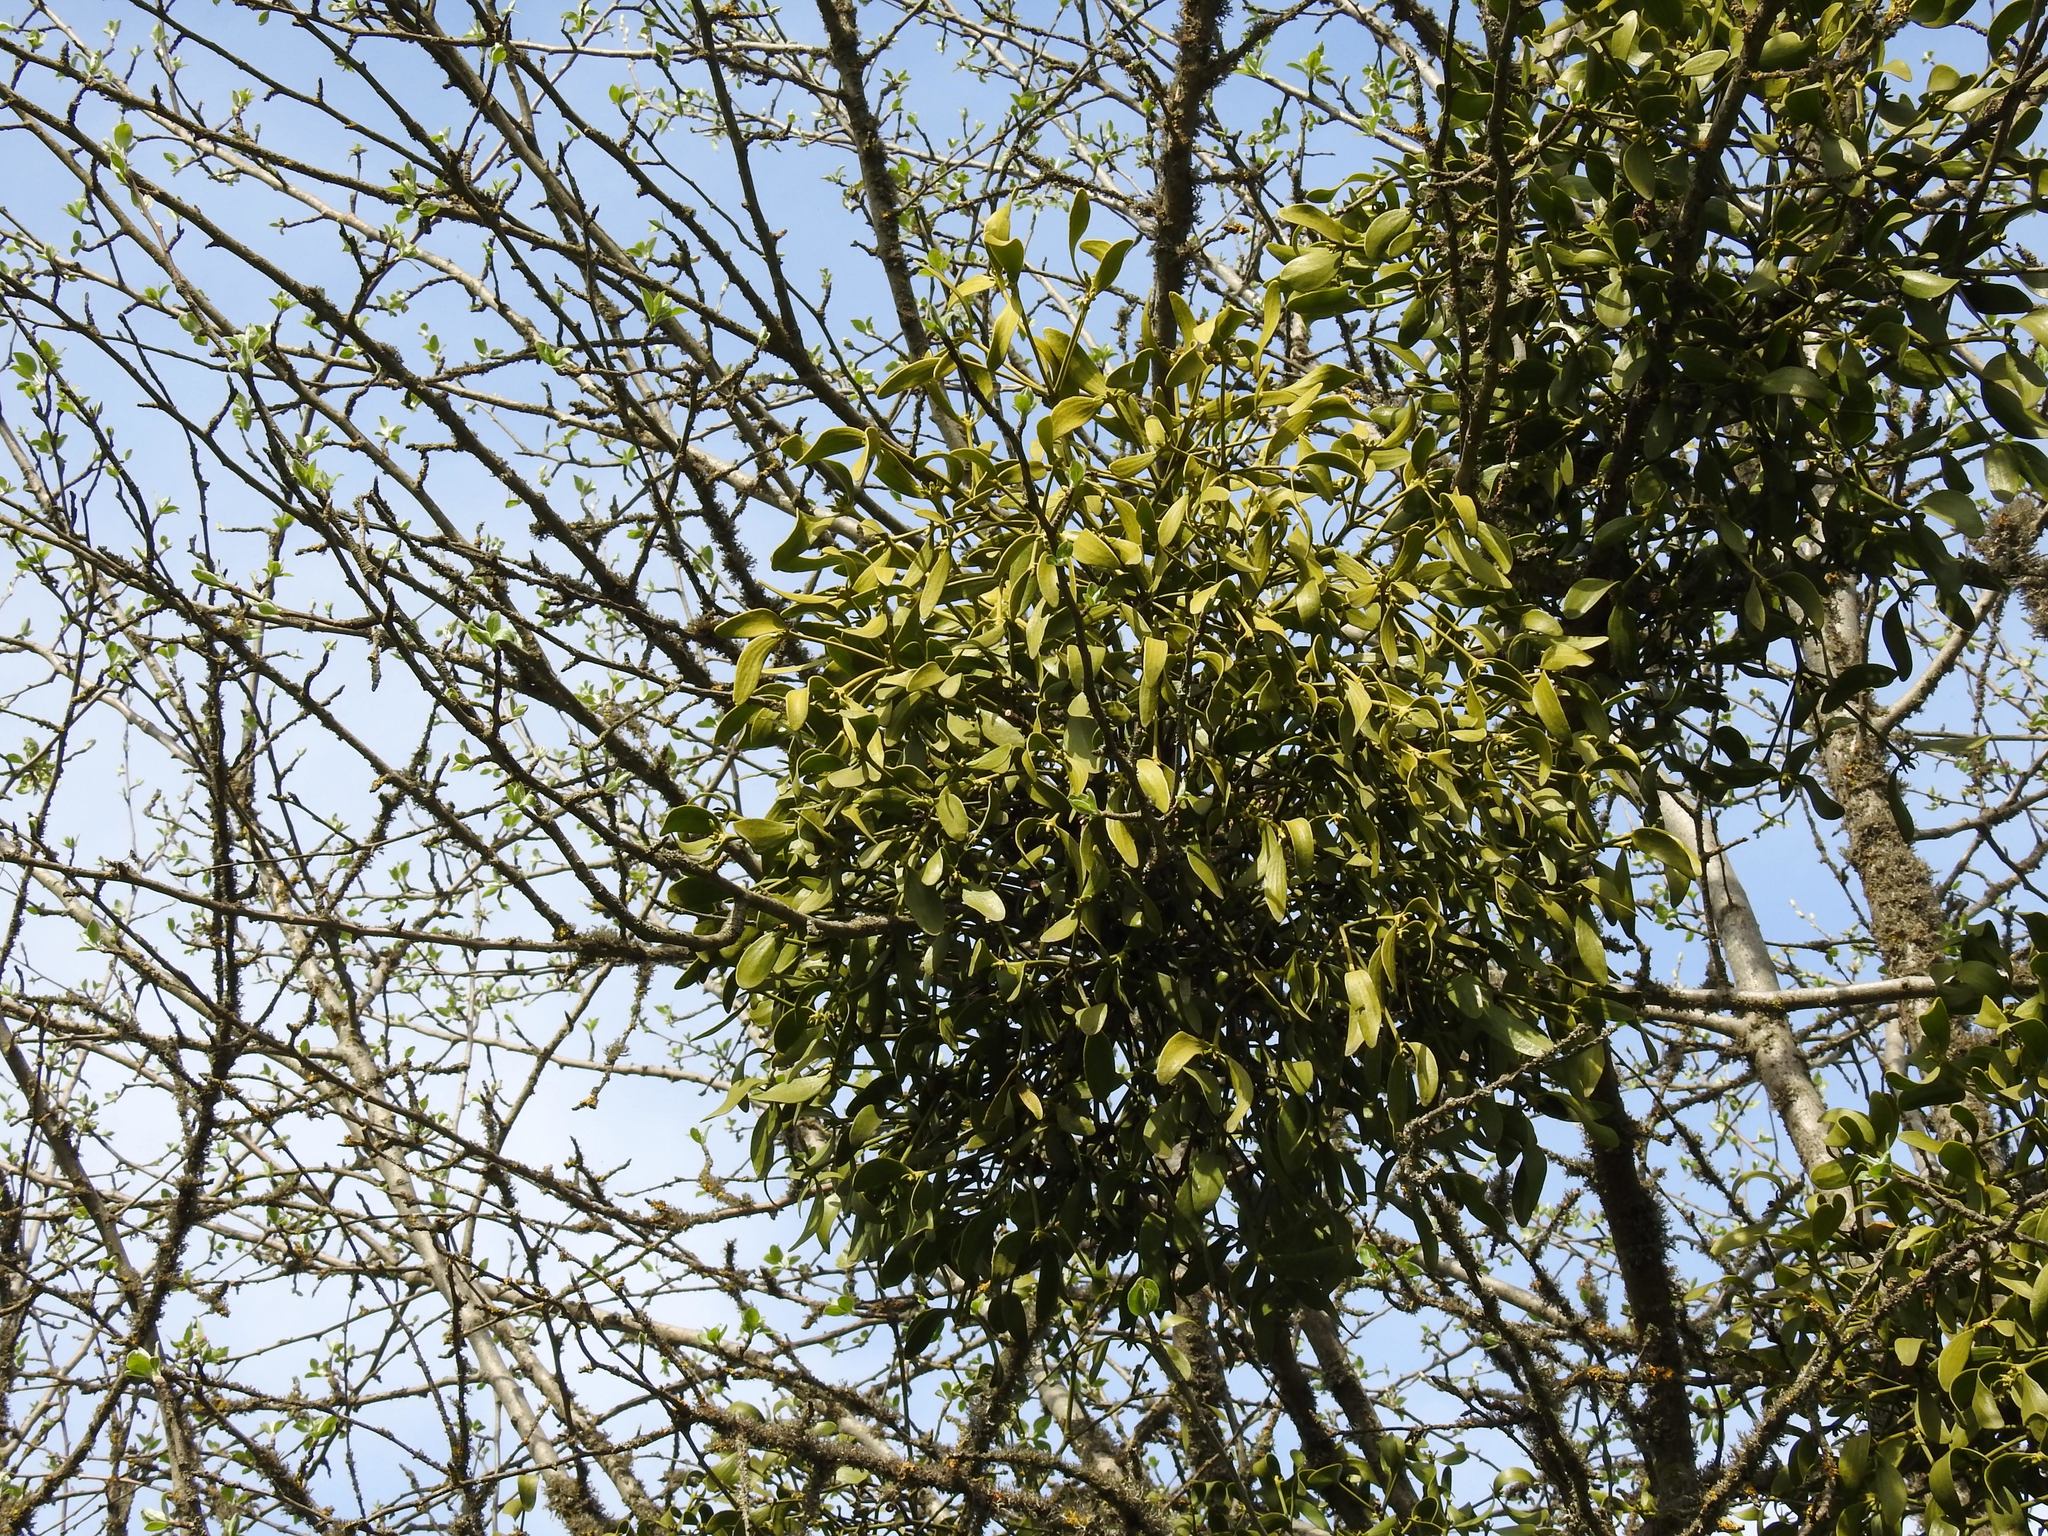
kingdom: Plantae
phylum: Tracheophyta
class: Magnoliopsida
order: Santalales
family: Viscaceae
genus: Viscum
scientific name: Viscum album
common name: Mistletoe
